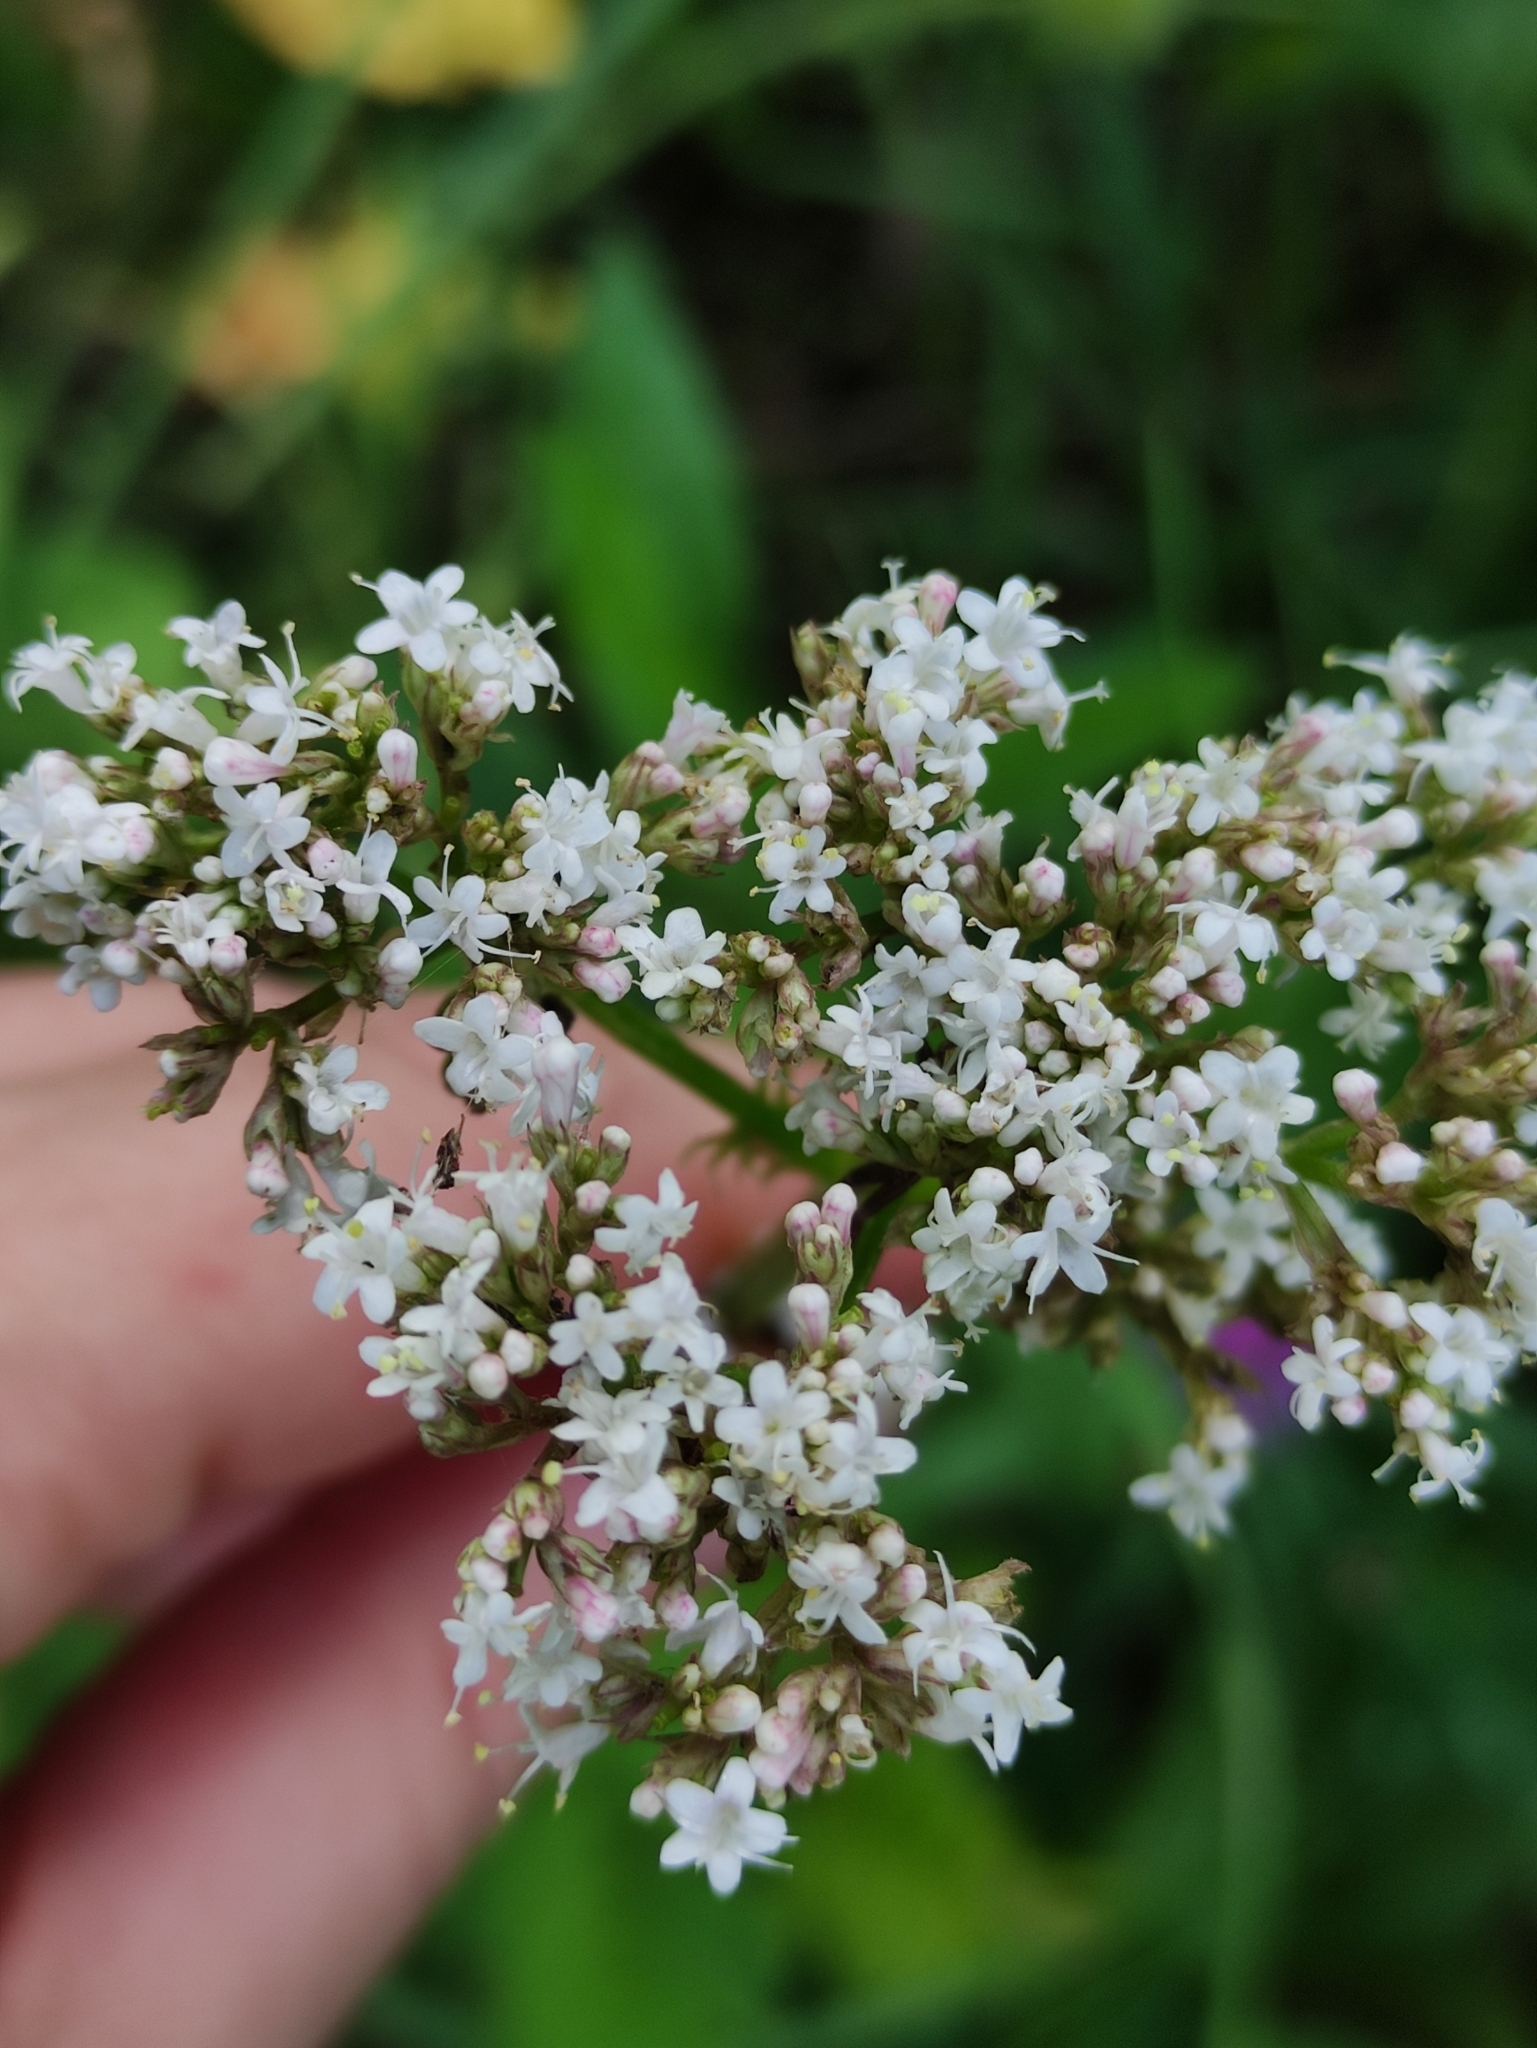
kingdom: Plantae
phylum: Tracheophyta
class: Magnoliopsida
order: Dipsacales
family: Caprifoliaceae
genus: Valeriana
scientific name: Valeriana officinalis
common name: Common valerian
